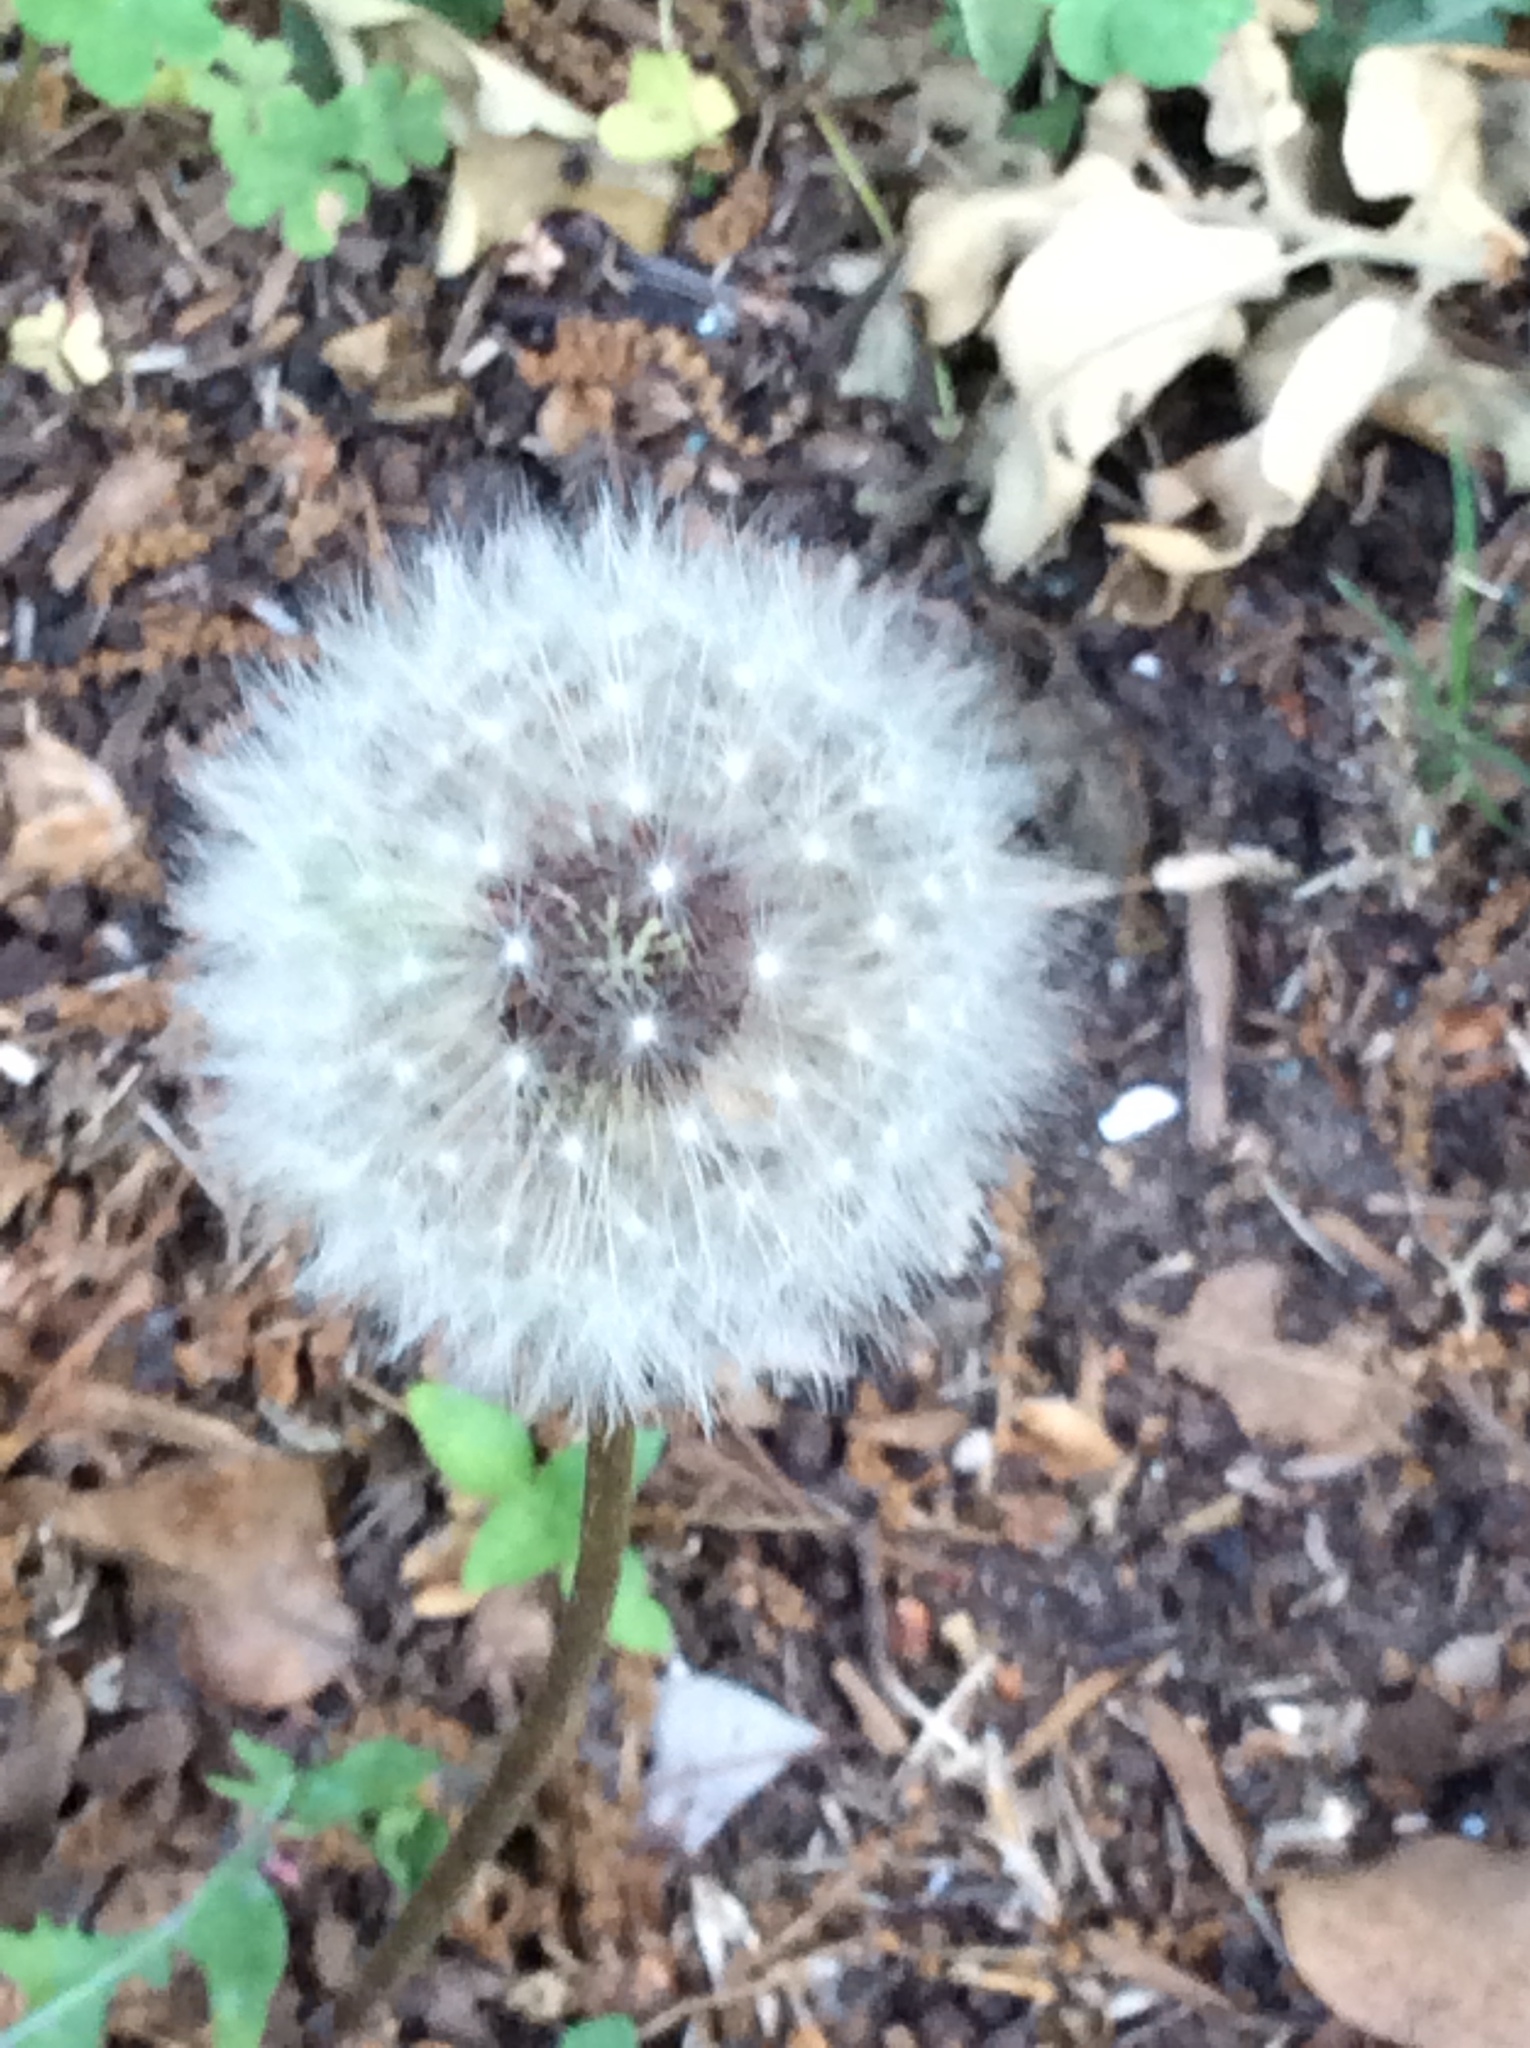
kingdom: Plantae
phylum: Tracheophyta
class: Magnoliopsida
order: Asterales
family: Asteraceae
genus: Taraxacum
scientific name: Taraxacum officinale
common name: Common dandelion
